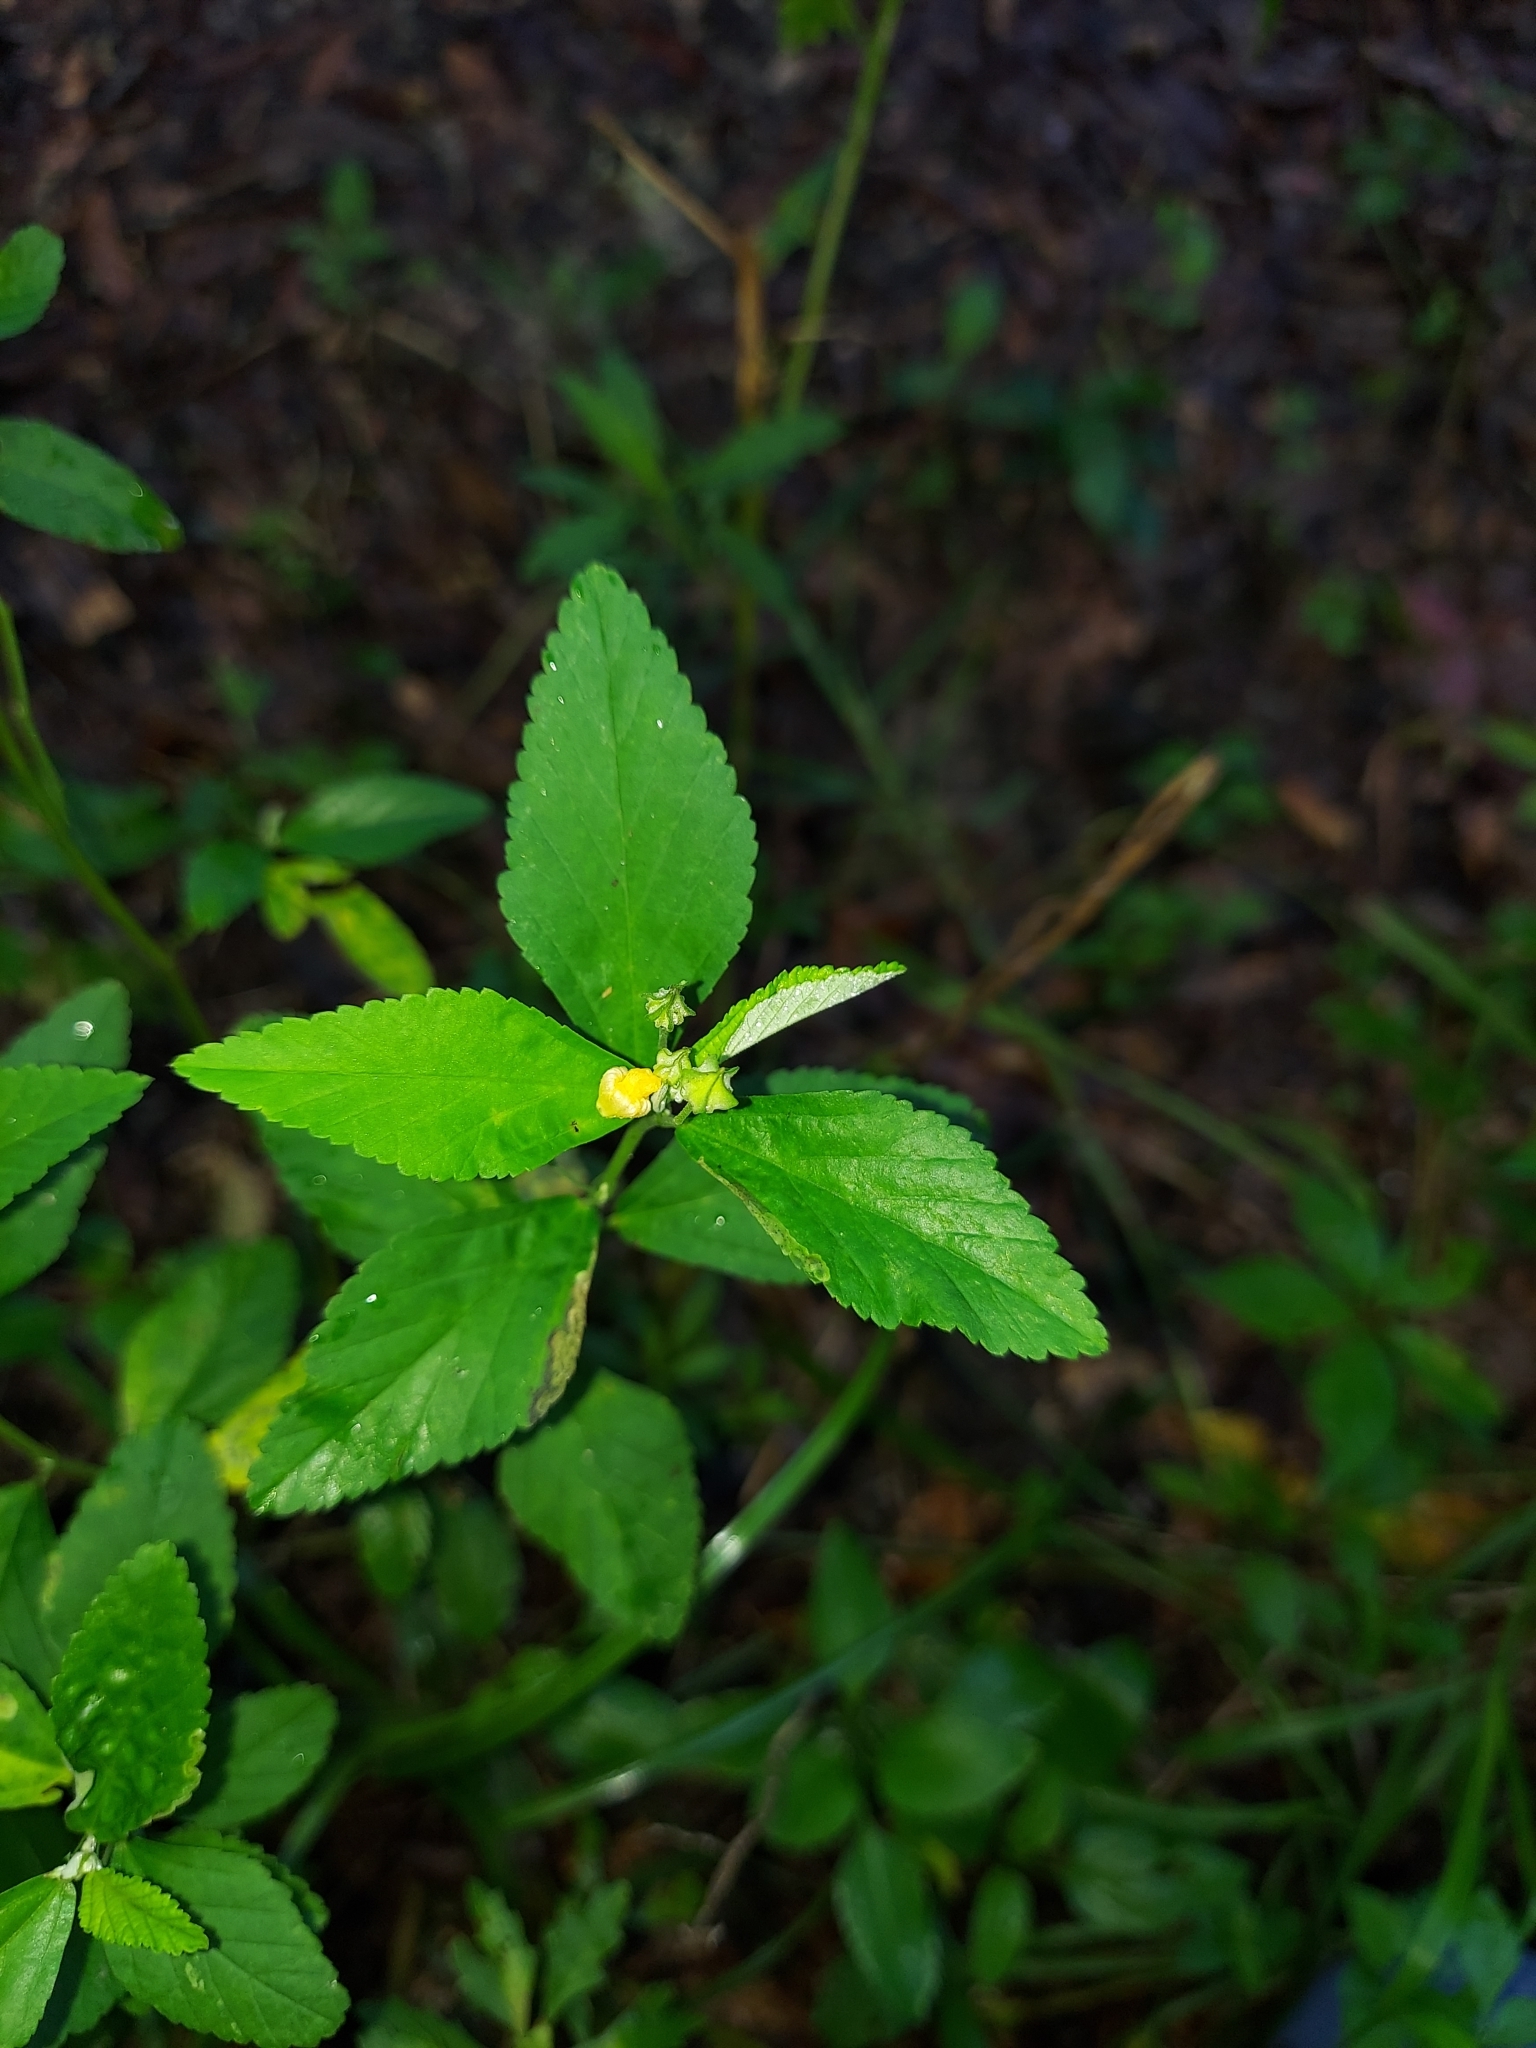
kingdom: Plantae
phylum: Tracheophyta
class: Magnoliopsida
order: Malvales
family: Malvaceae
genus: Sida
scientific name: Sida rhombifolia
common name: Queensland-hemp
